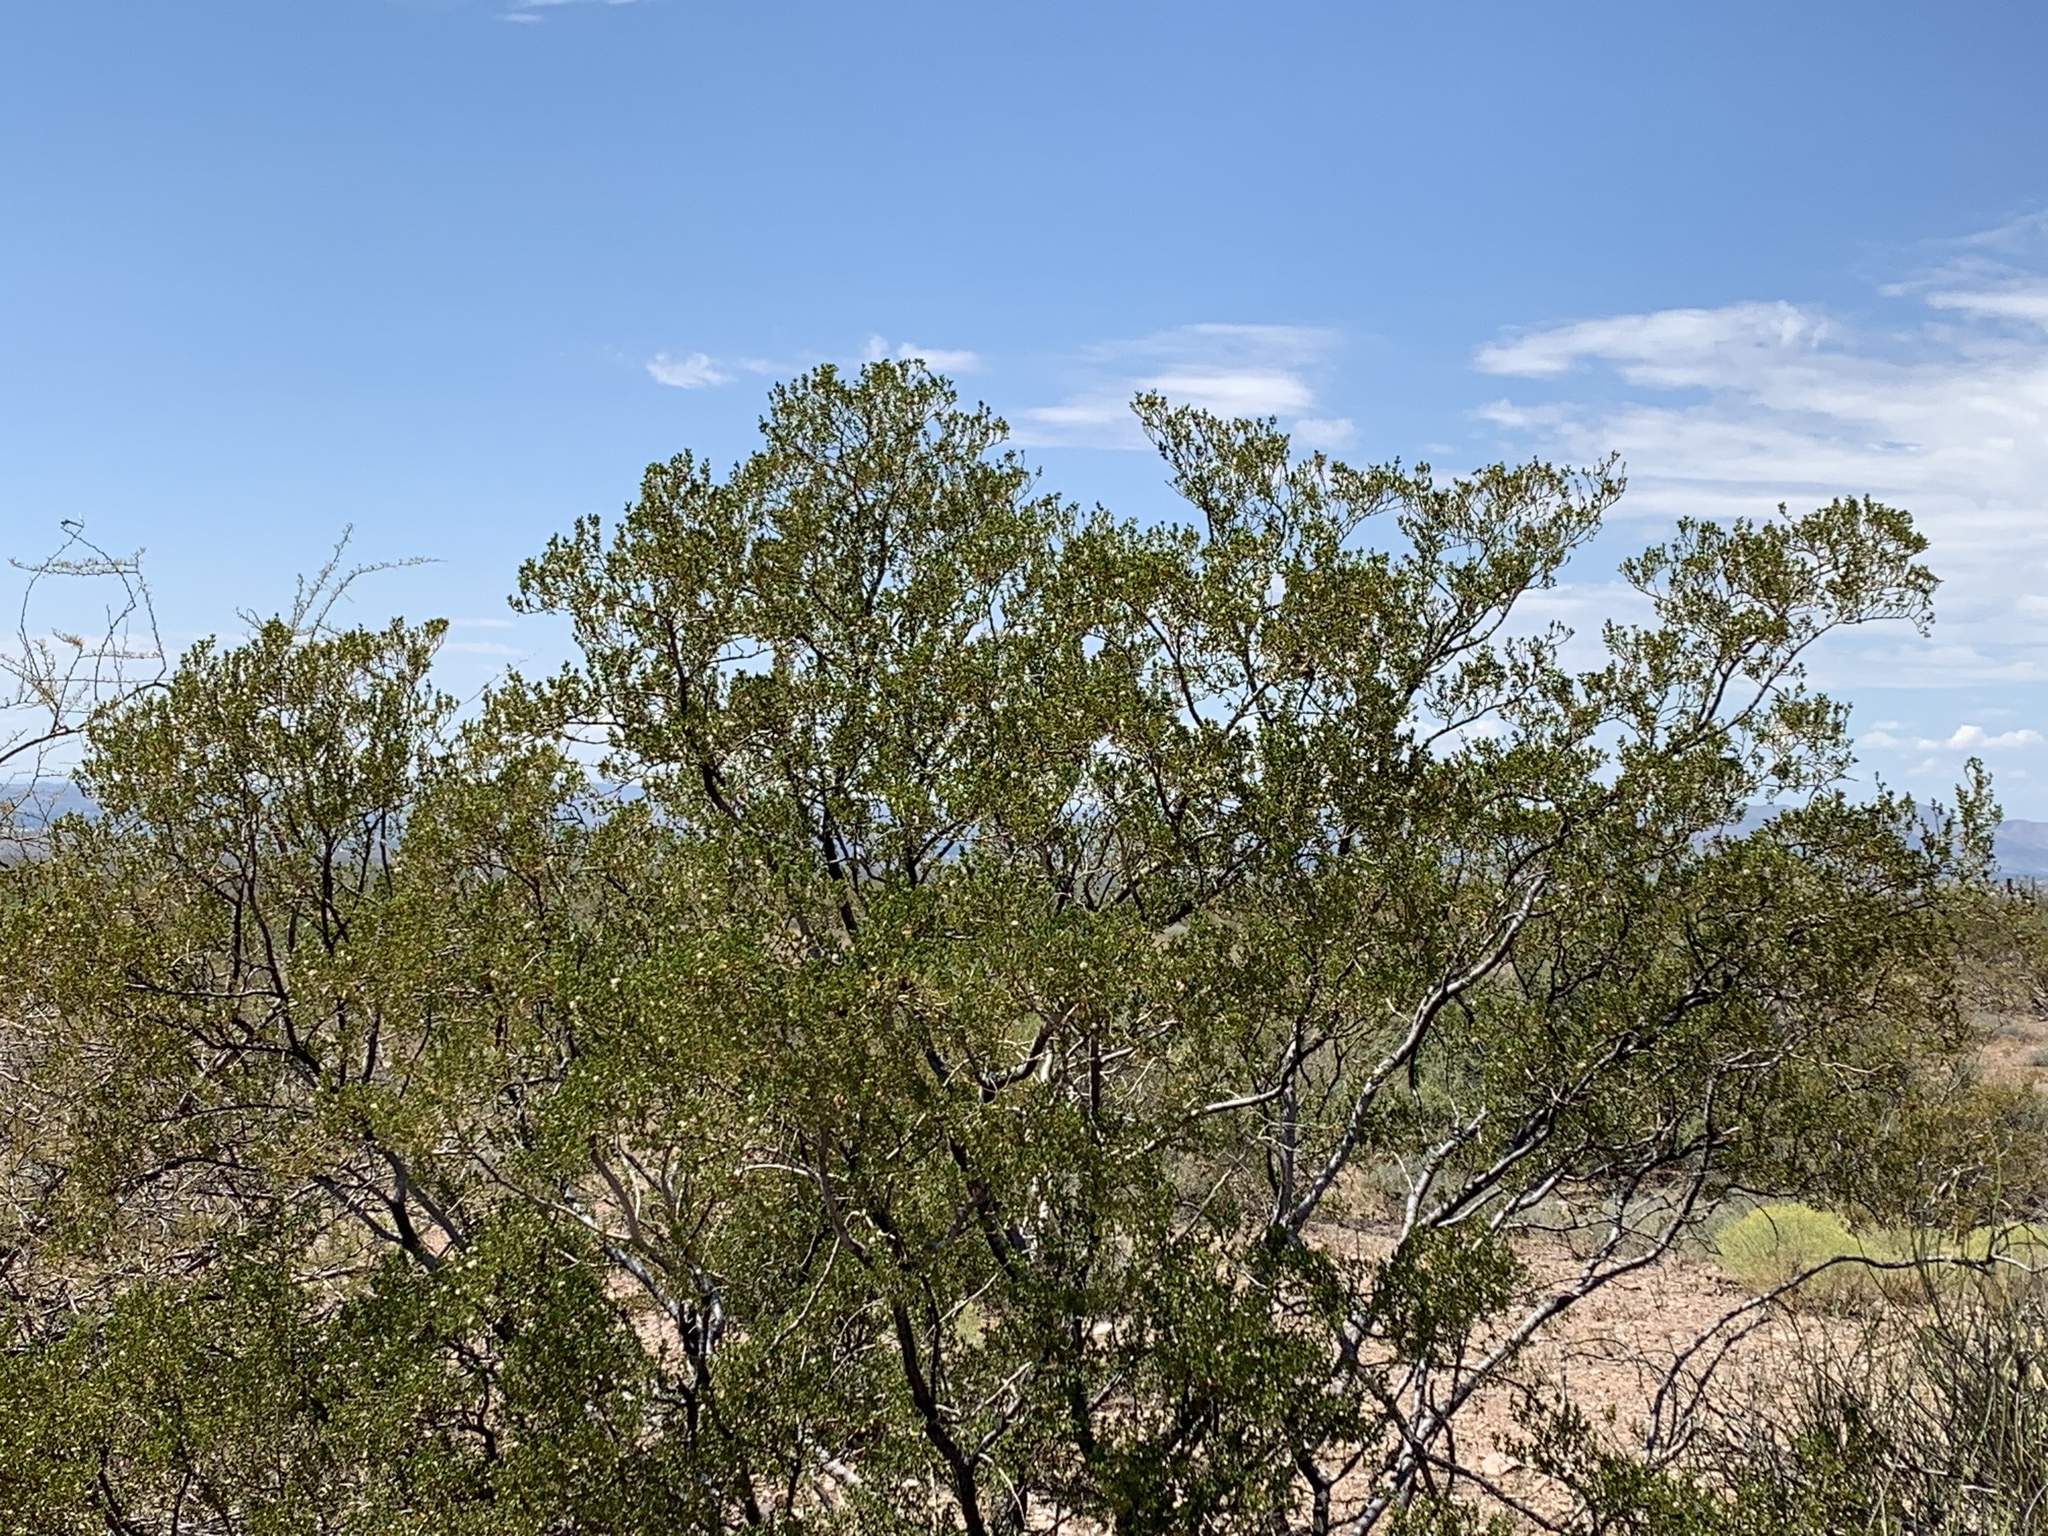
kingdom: Plantae
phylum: Tracheophyta
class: Magnoliopsida
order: Zygophyllales
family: Zygophyllaceae
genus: Larrea
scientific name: Larrea tridentata
